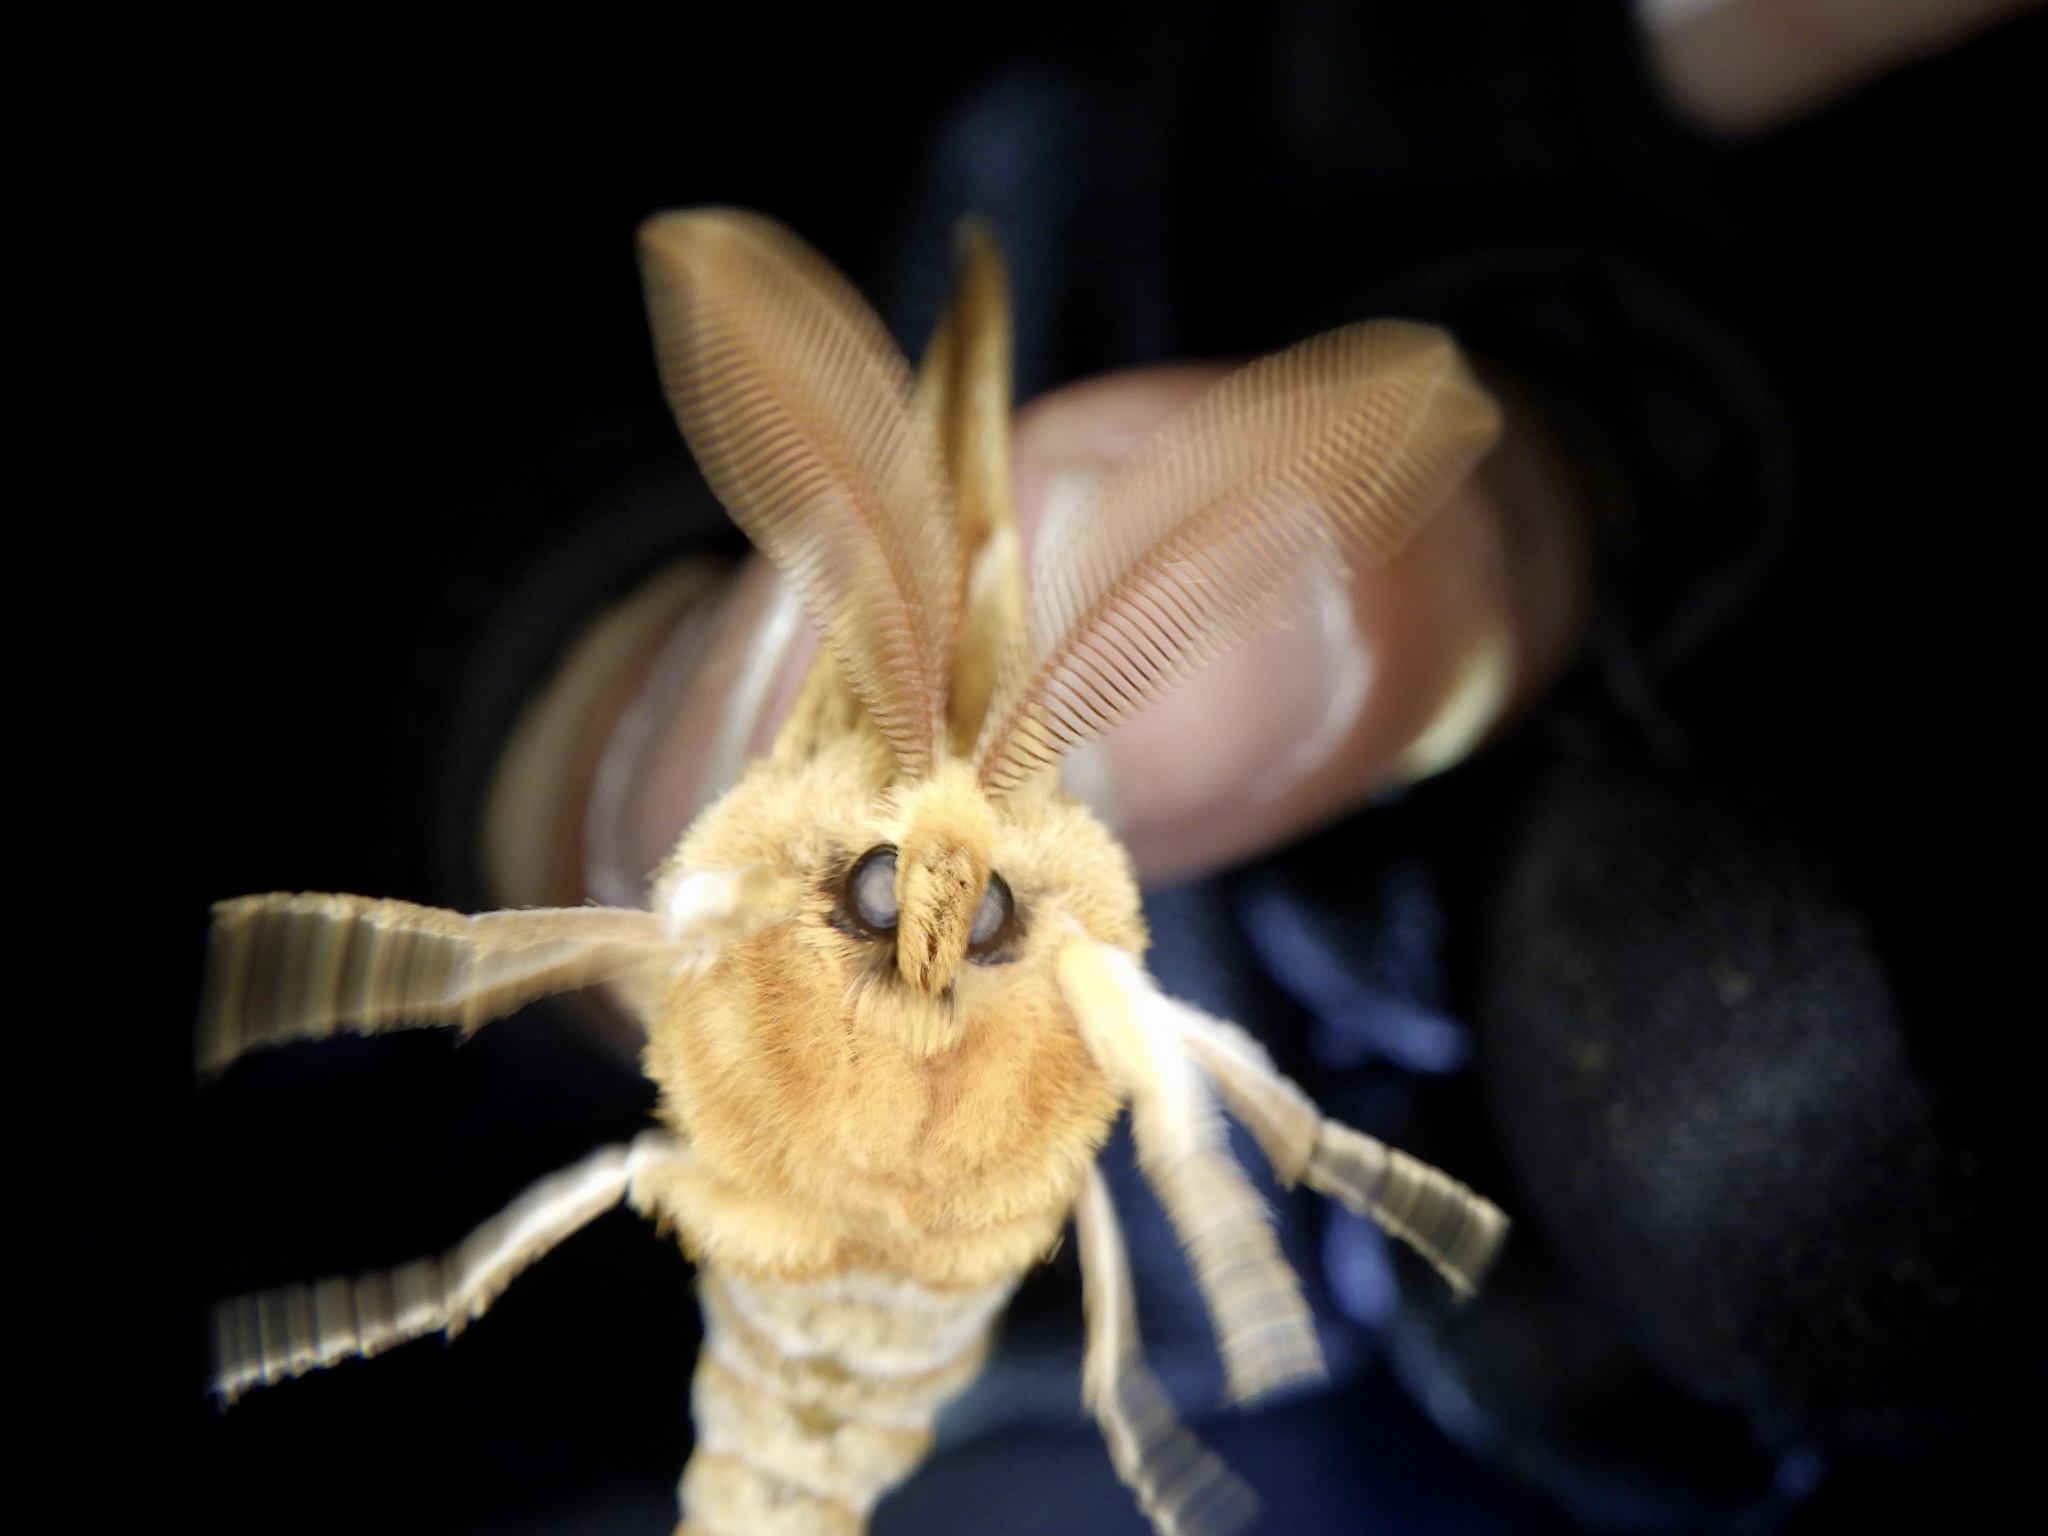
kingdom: Animalia
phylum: Arthropoda
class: Insecta
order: Lepidoptera
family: Saturniidae
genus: Aglia
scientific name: Aglia japonica
